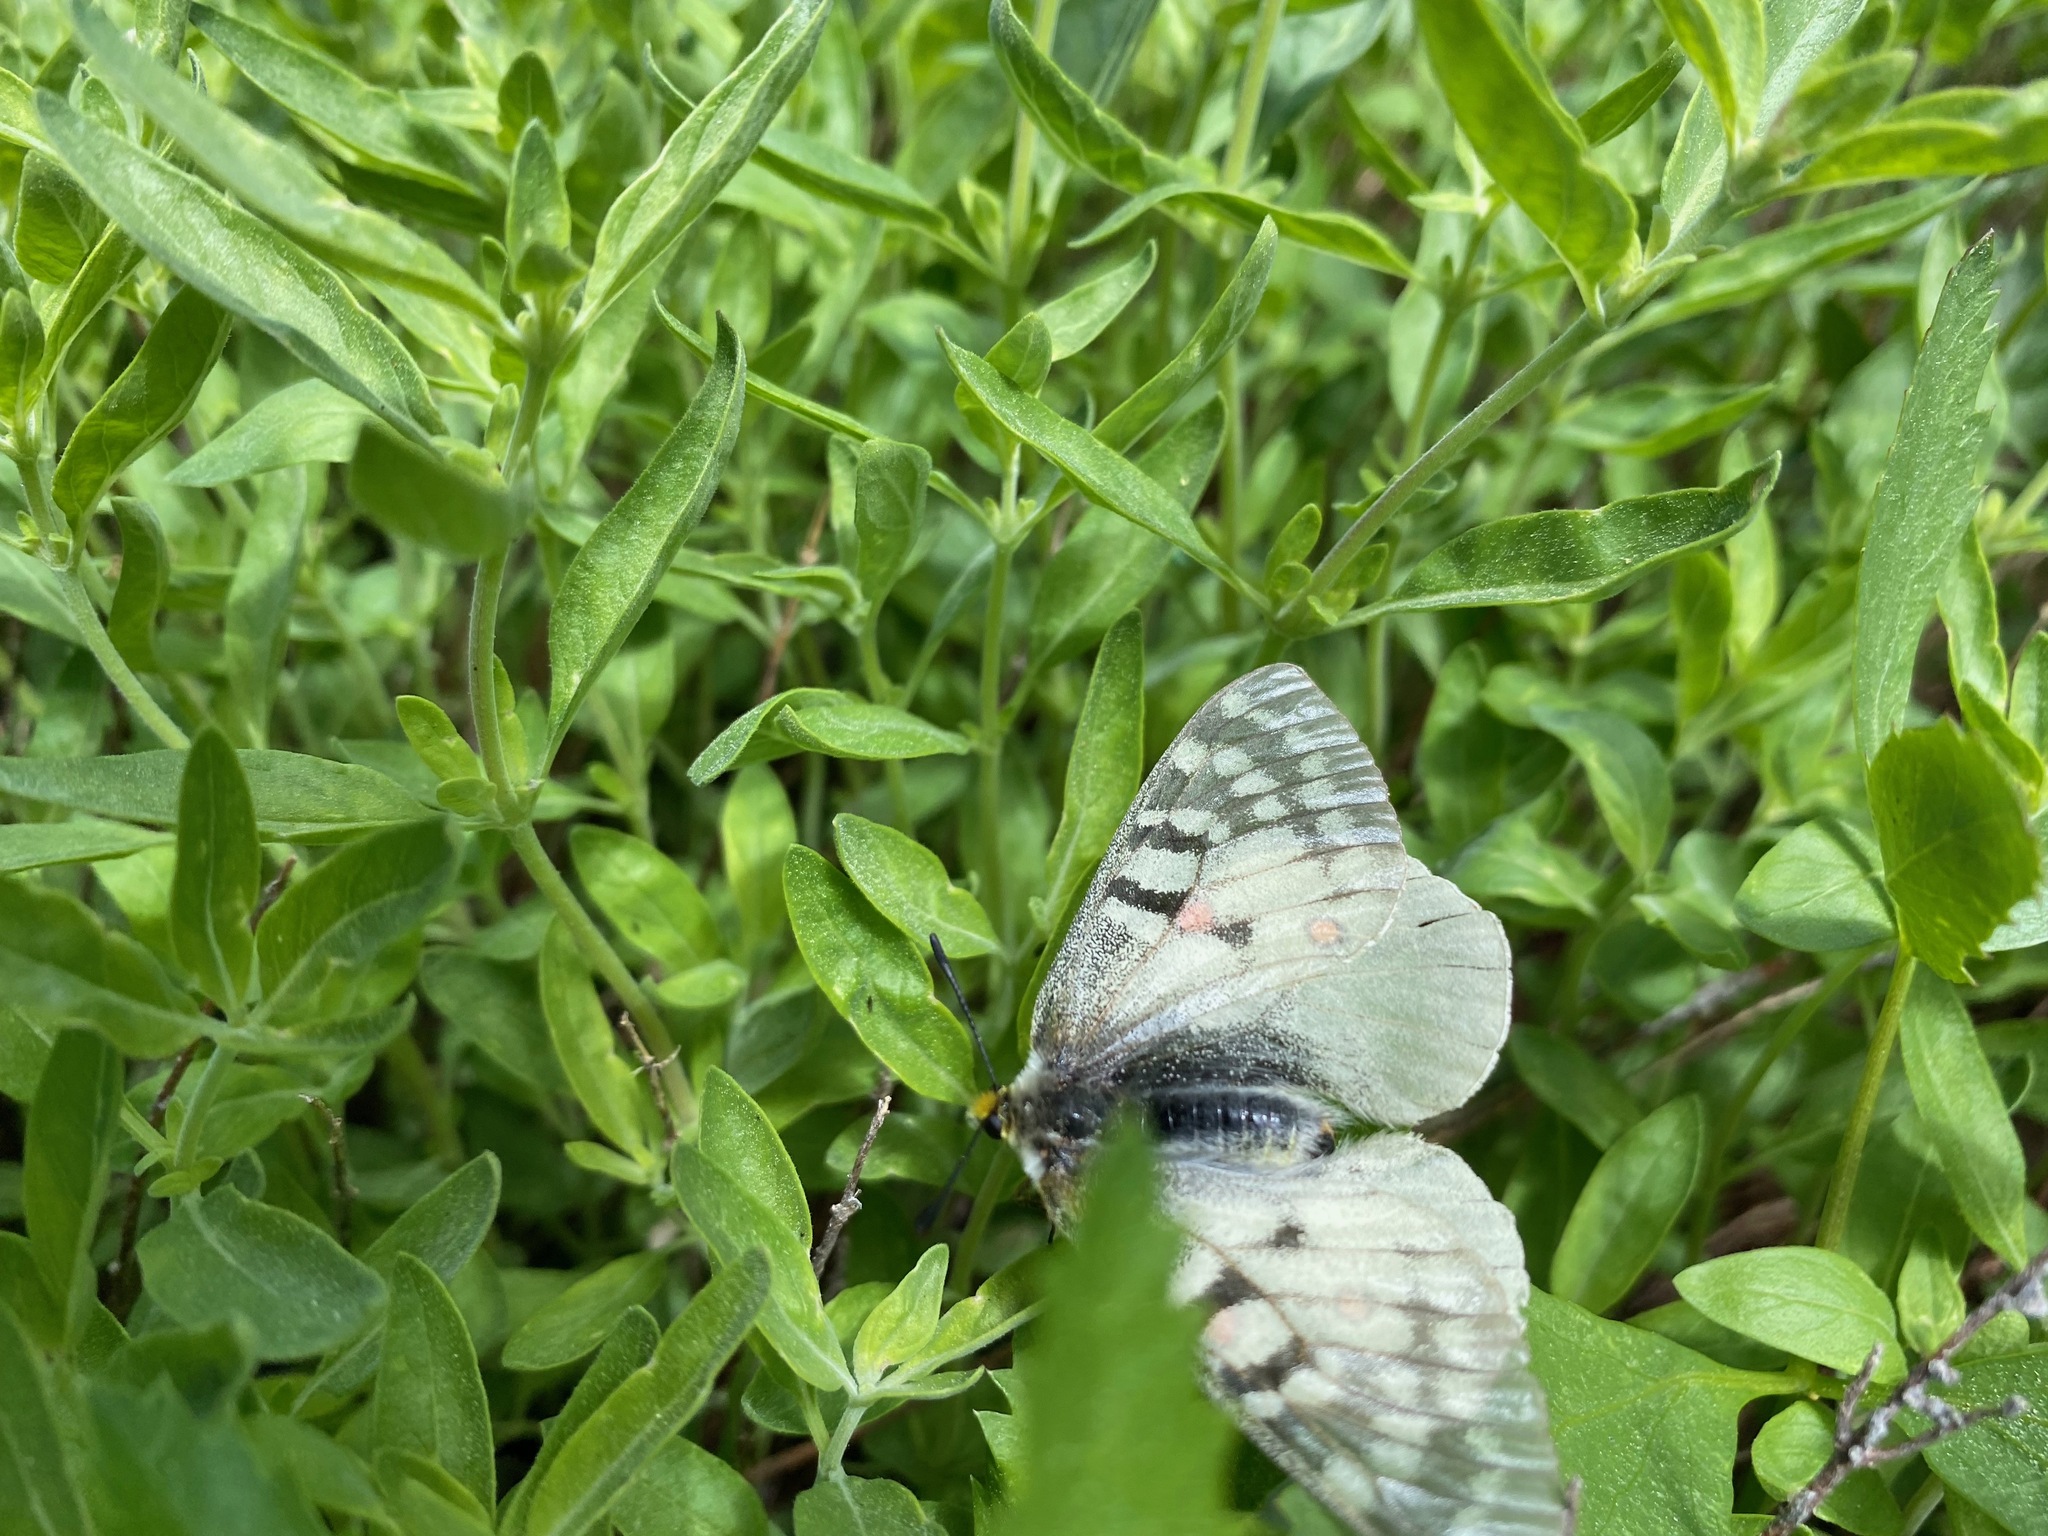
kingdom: Animalia
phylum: Arthropoda
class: Insecta
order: Lepidoptera
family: Papilionidae
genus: Parnassius
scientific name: Parnassius clodius
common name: American apollo
